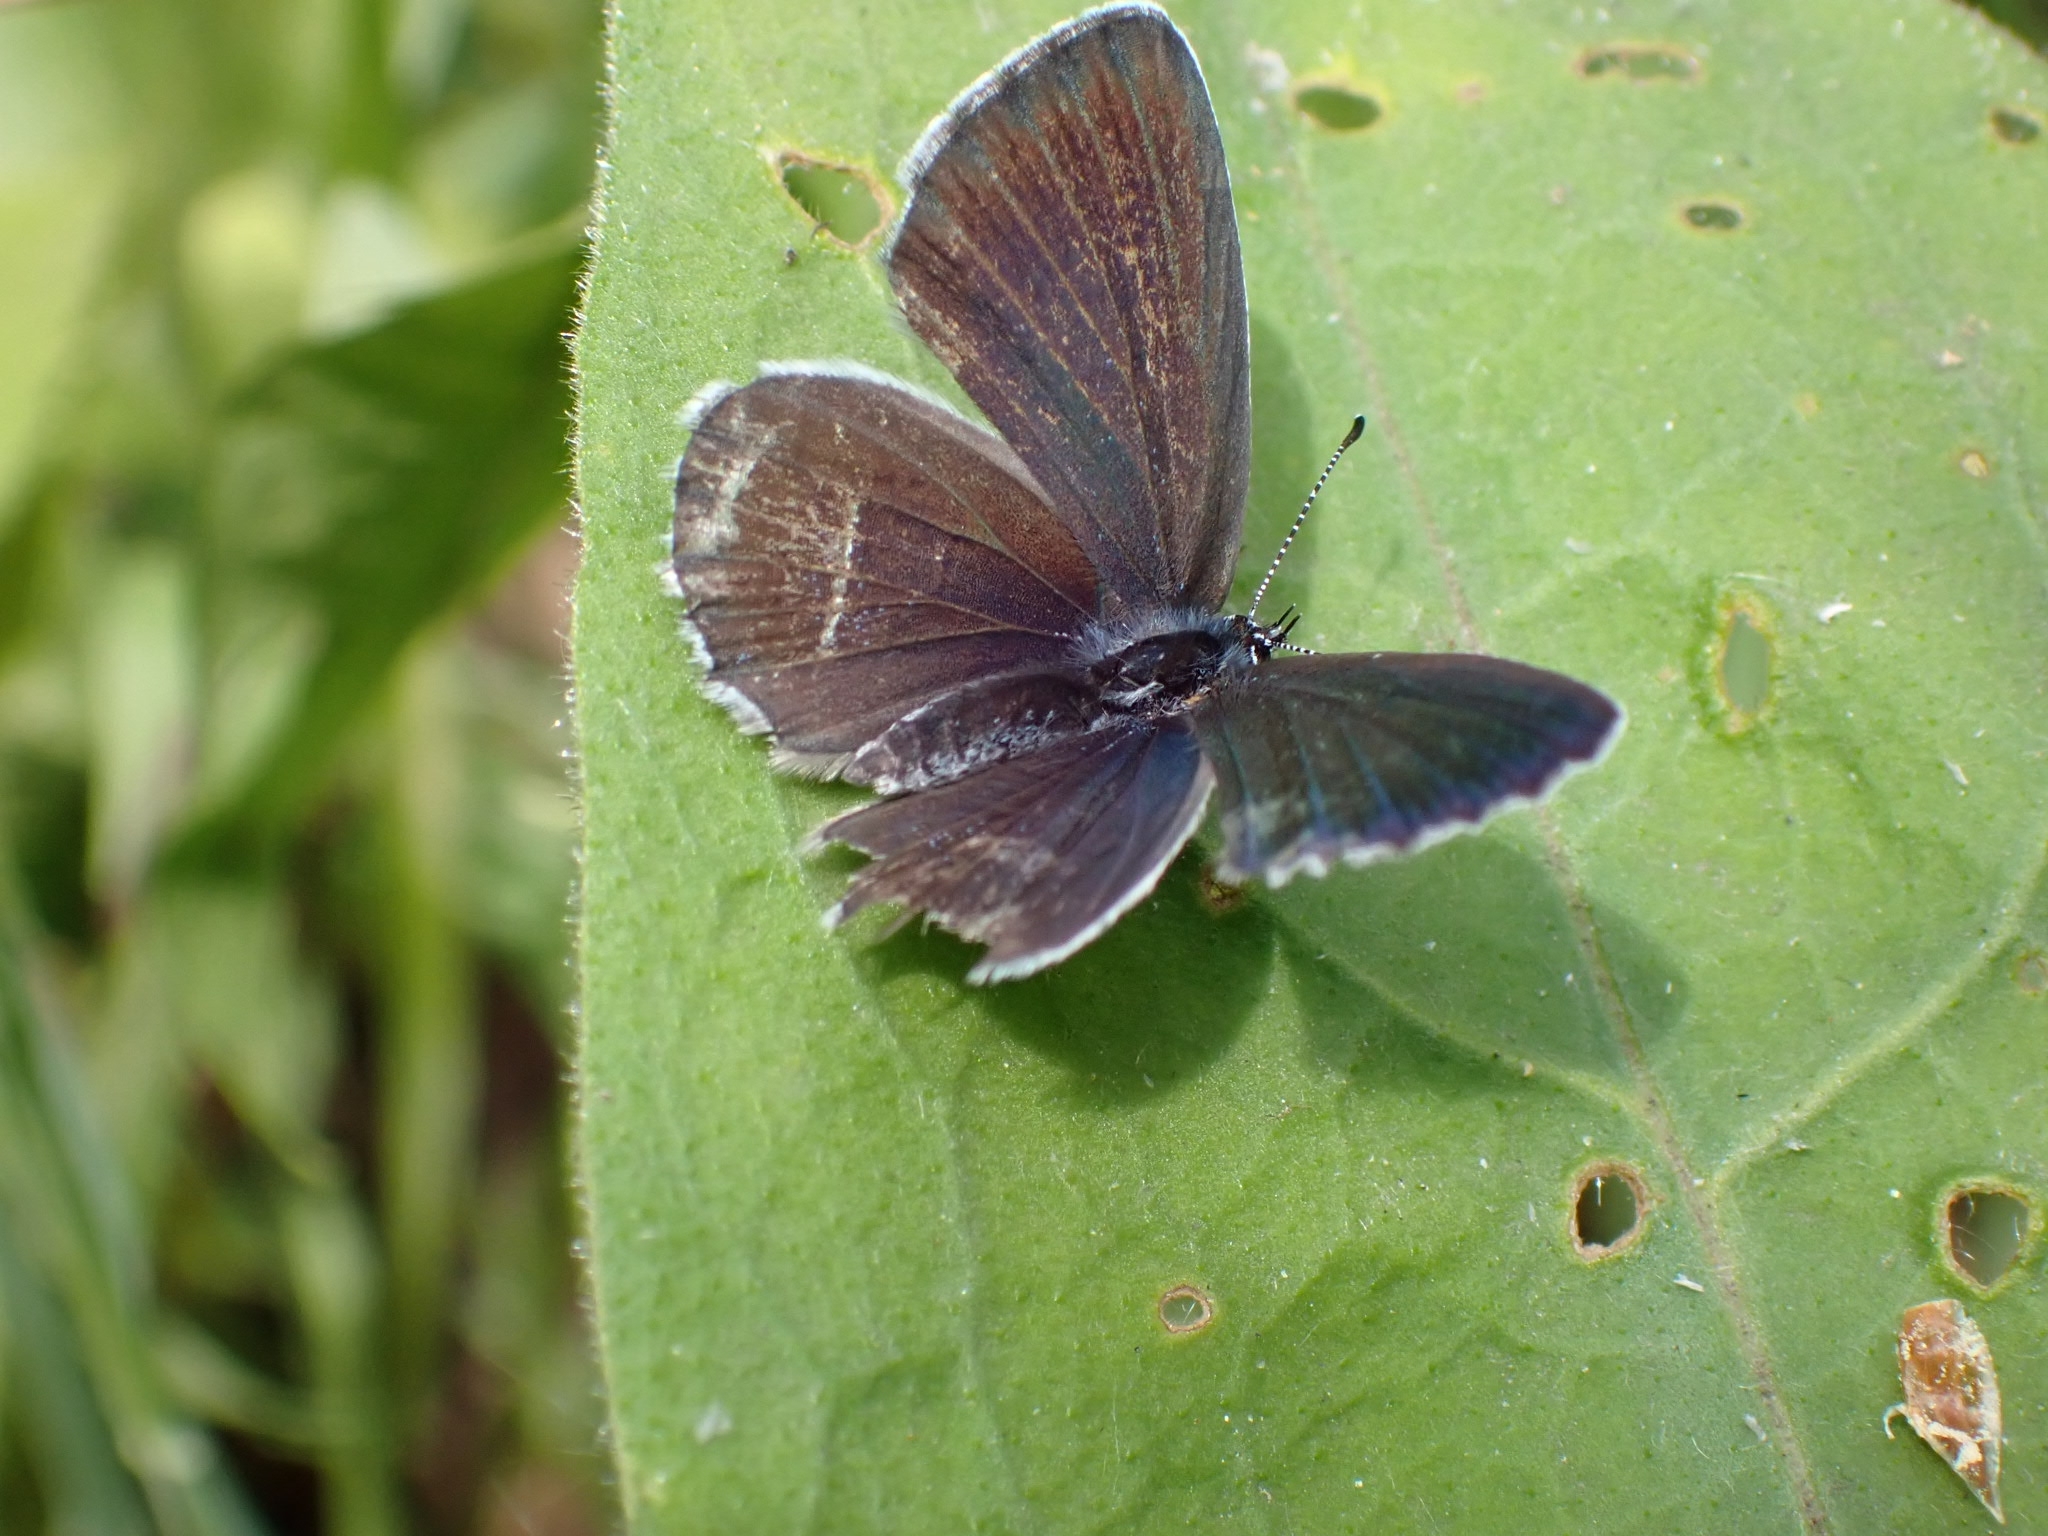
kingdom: Animalia
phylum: Arthropoda
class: Insecta
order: Lepidoptera
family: Lycaenidae
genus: Elkalyce
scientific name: Elkalyce alcetas
